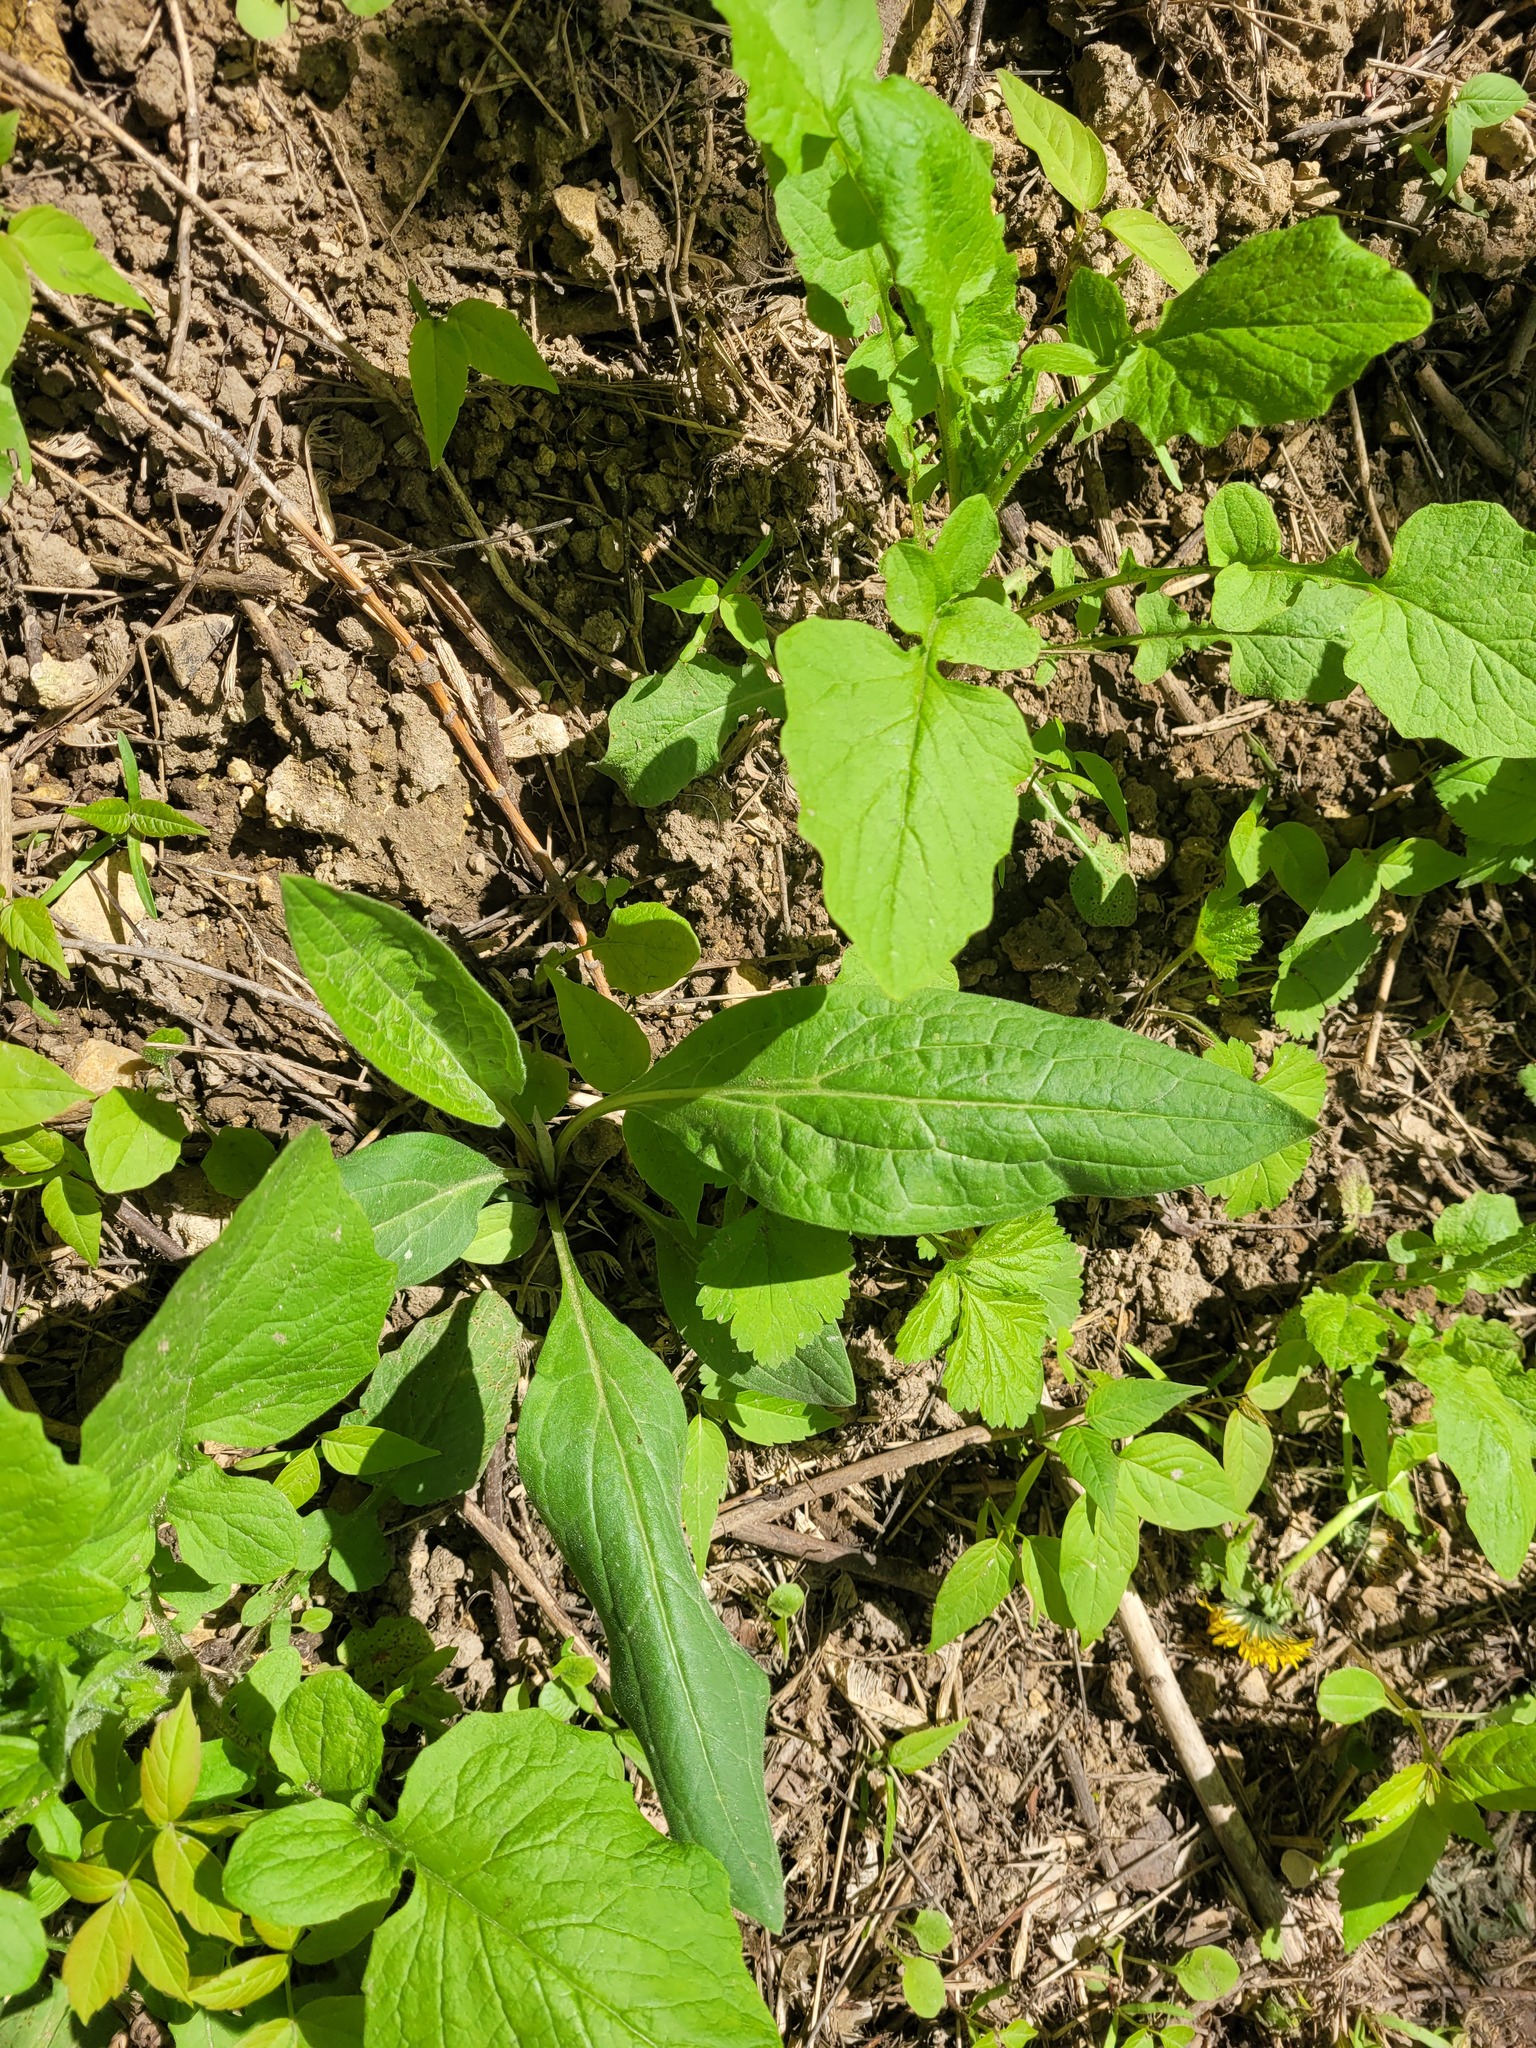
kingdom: Plantae
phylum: Tracheophyta
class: Magnoliopsida
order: Boraginales
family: Boraginaceae
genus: Cynoglossum
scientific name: Cynoglossum officinale
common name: Hound's-tongue
